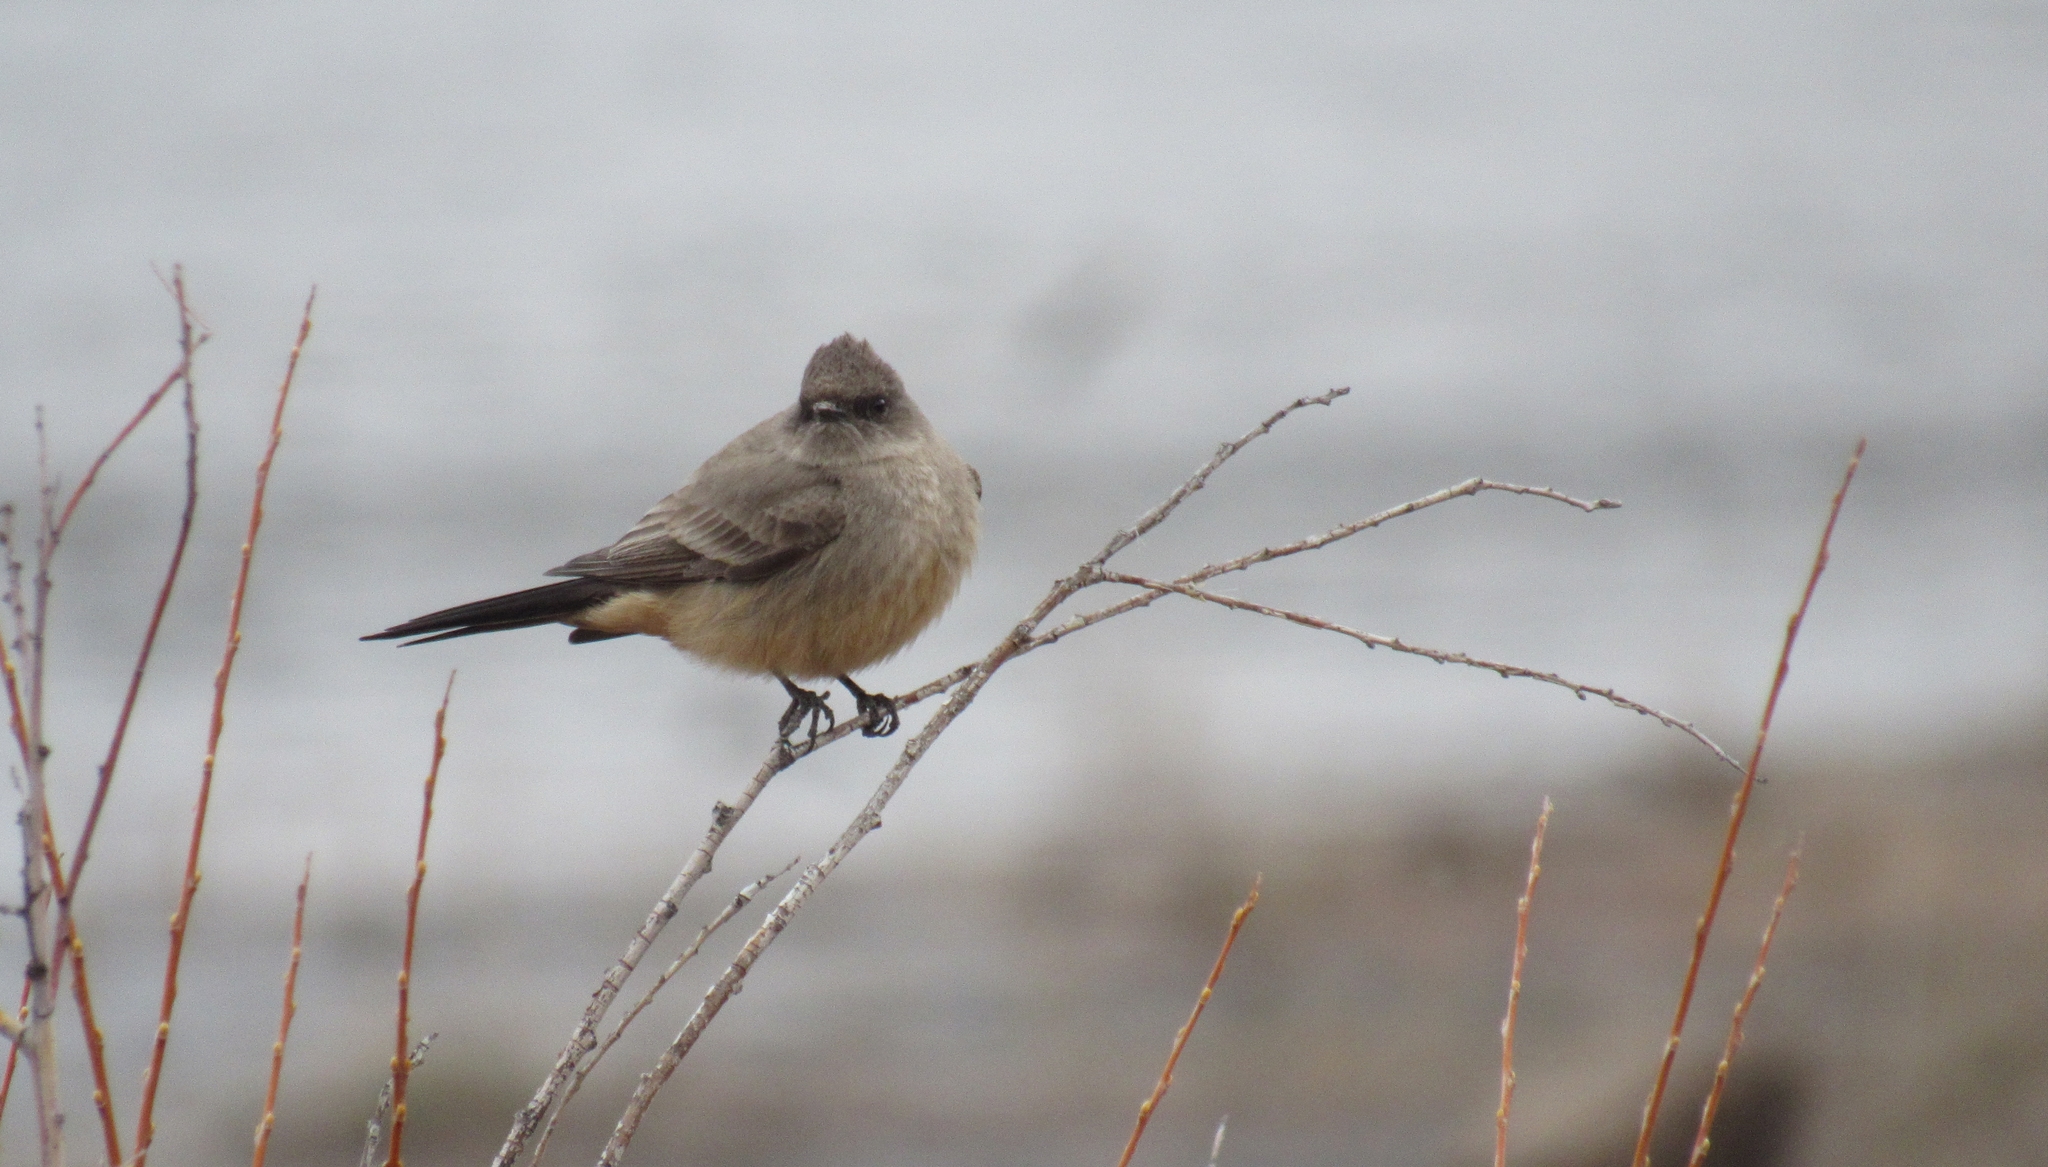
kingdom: Animalia
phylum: Chordata
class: Aves
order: Passeriformes
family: Tyrannidae
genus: Sayornis
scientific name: Sayornis saya
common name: Say's phoebe
